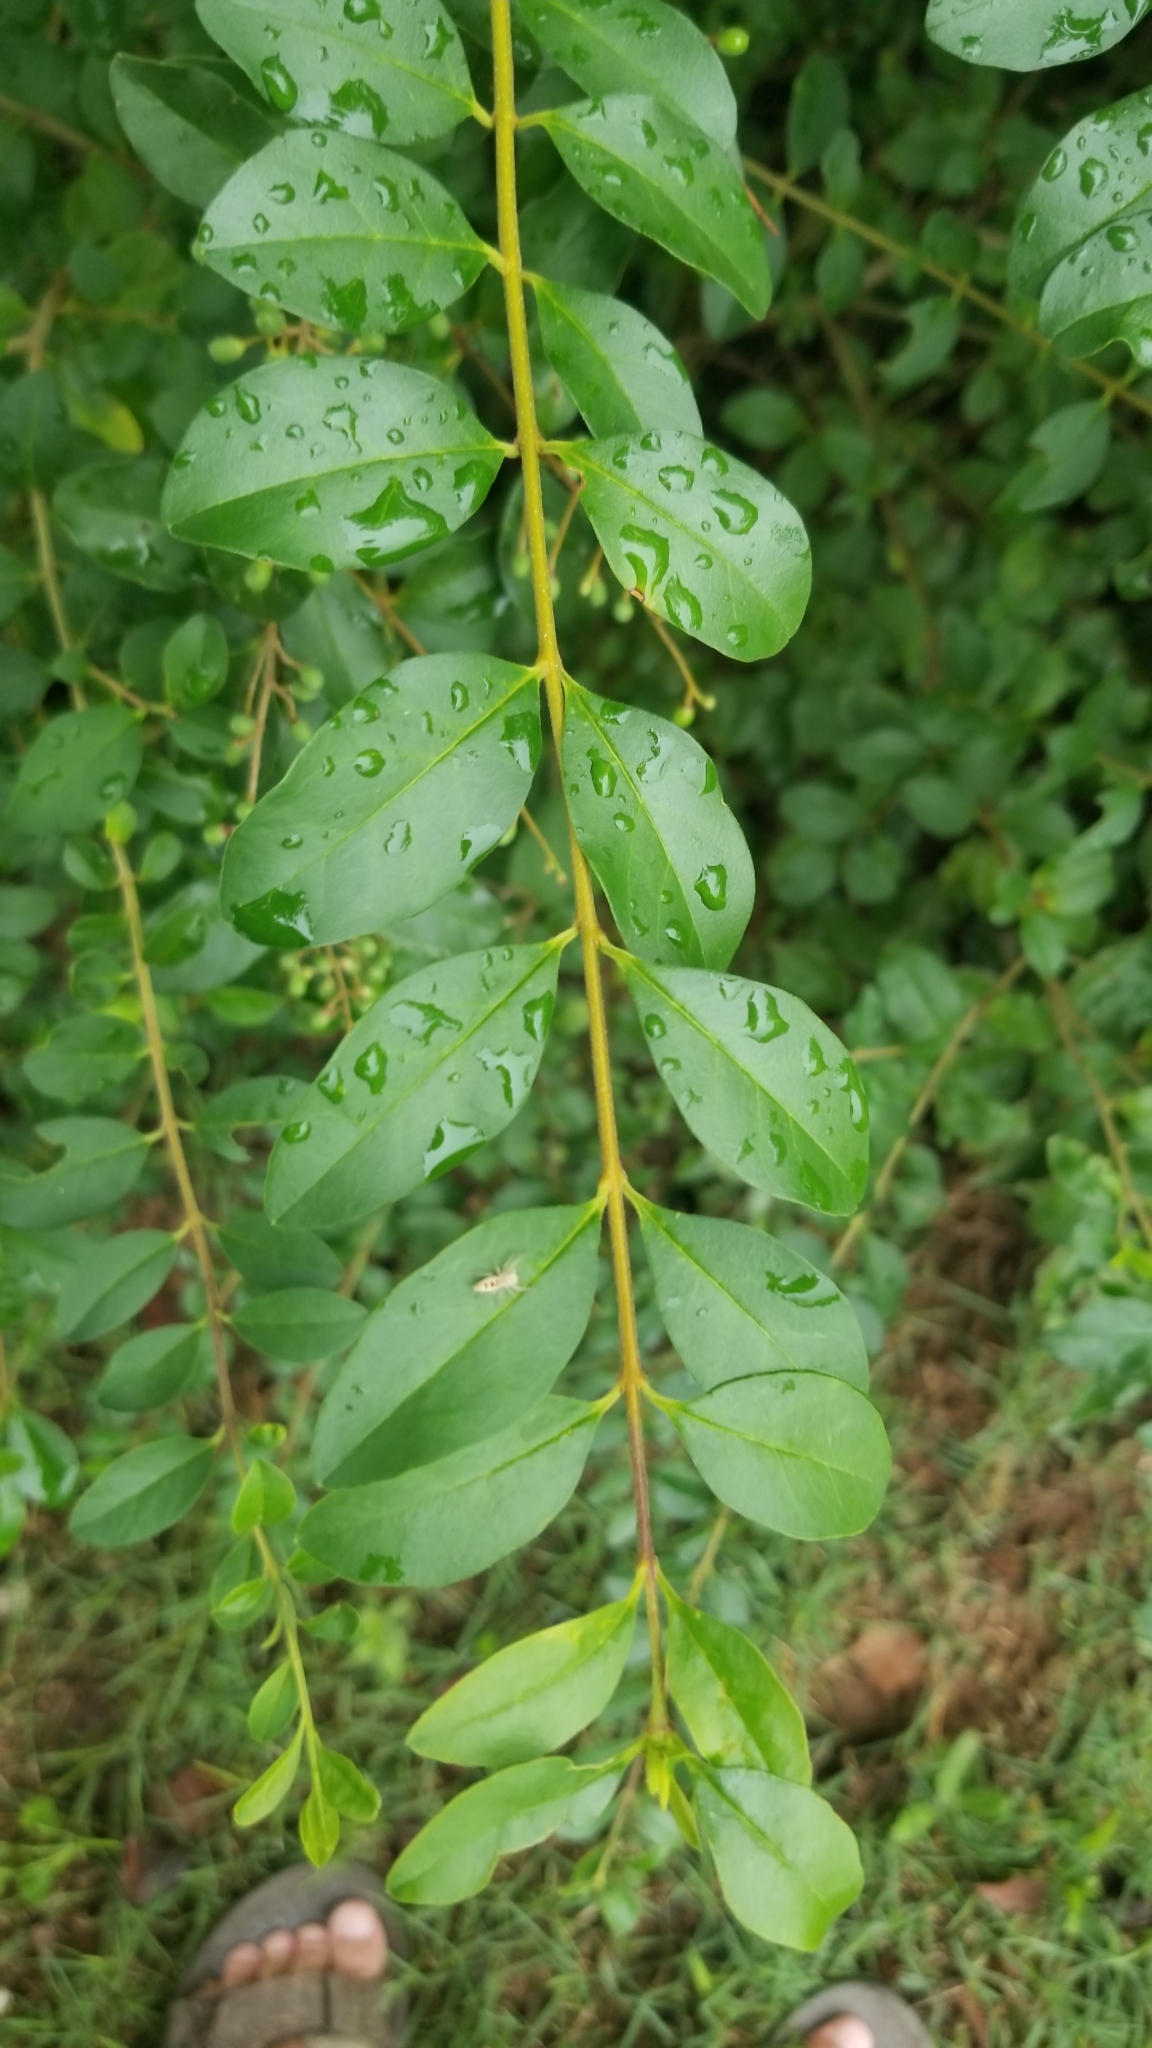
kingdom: Plantae
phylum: Tracheophyta
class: Magnoliopsida
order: Lamiales
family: Oleaceae
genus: Ligustrum
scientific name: Ligustrum sinense
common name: Chinese privet
